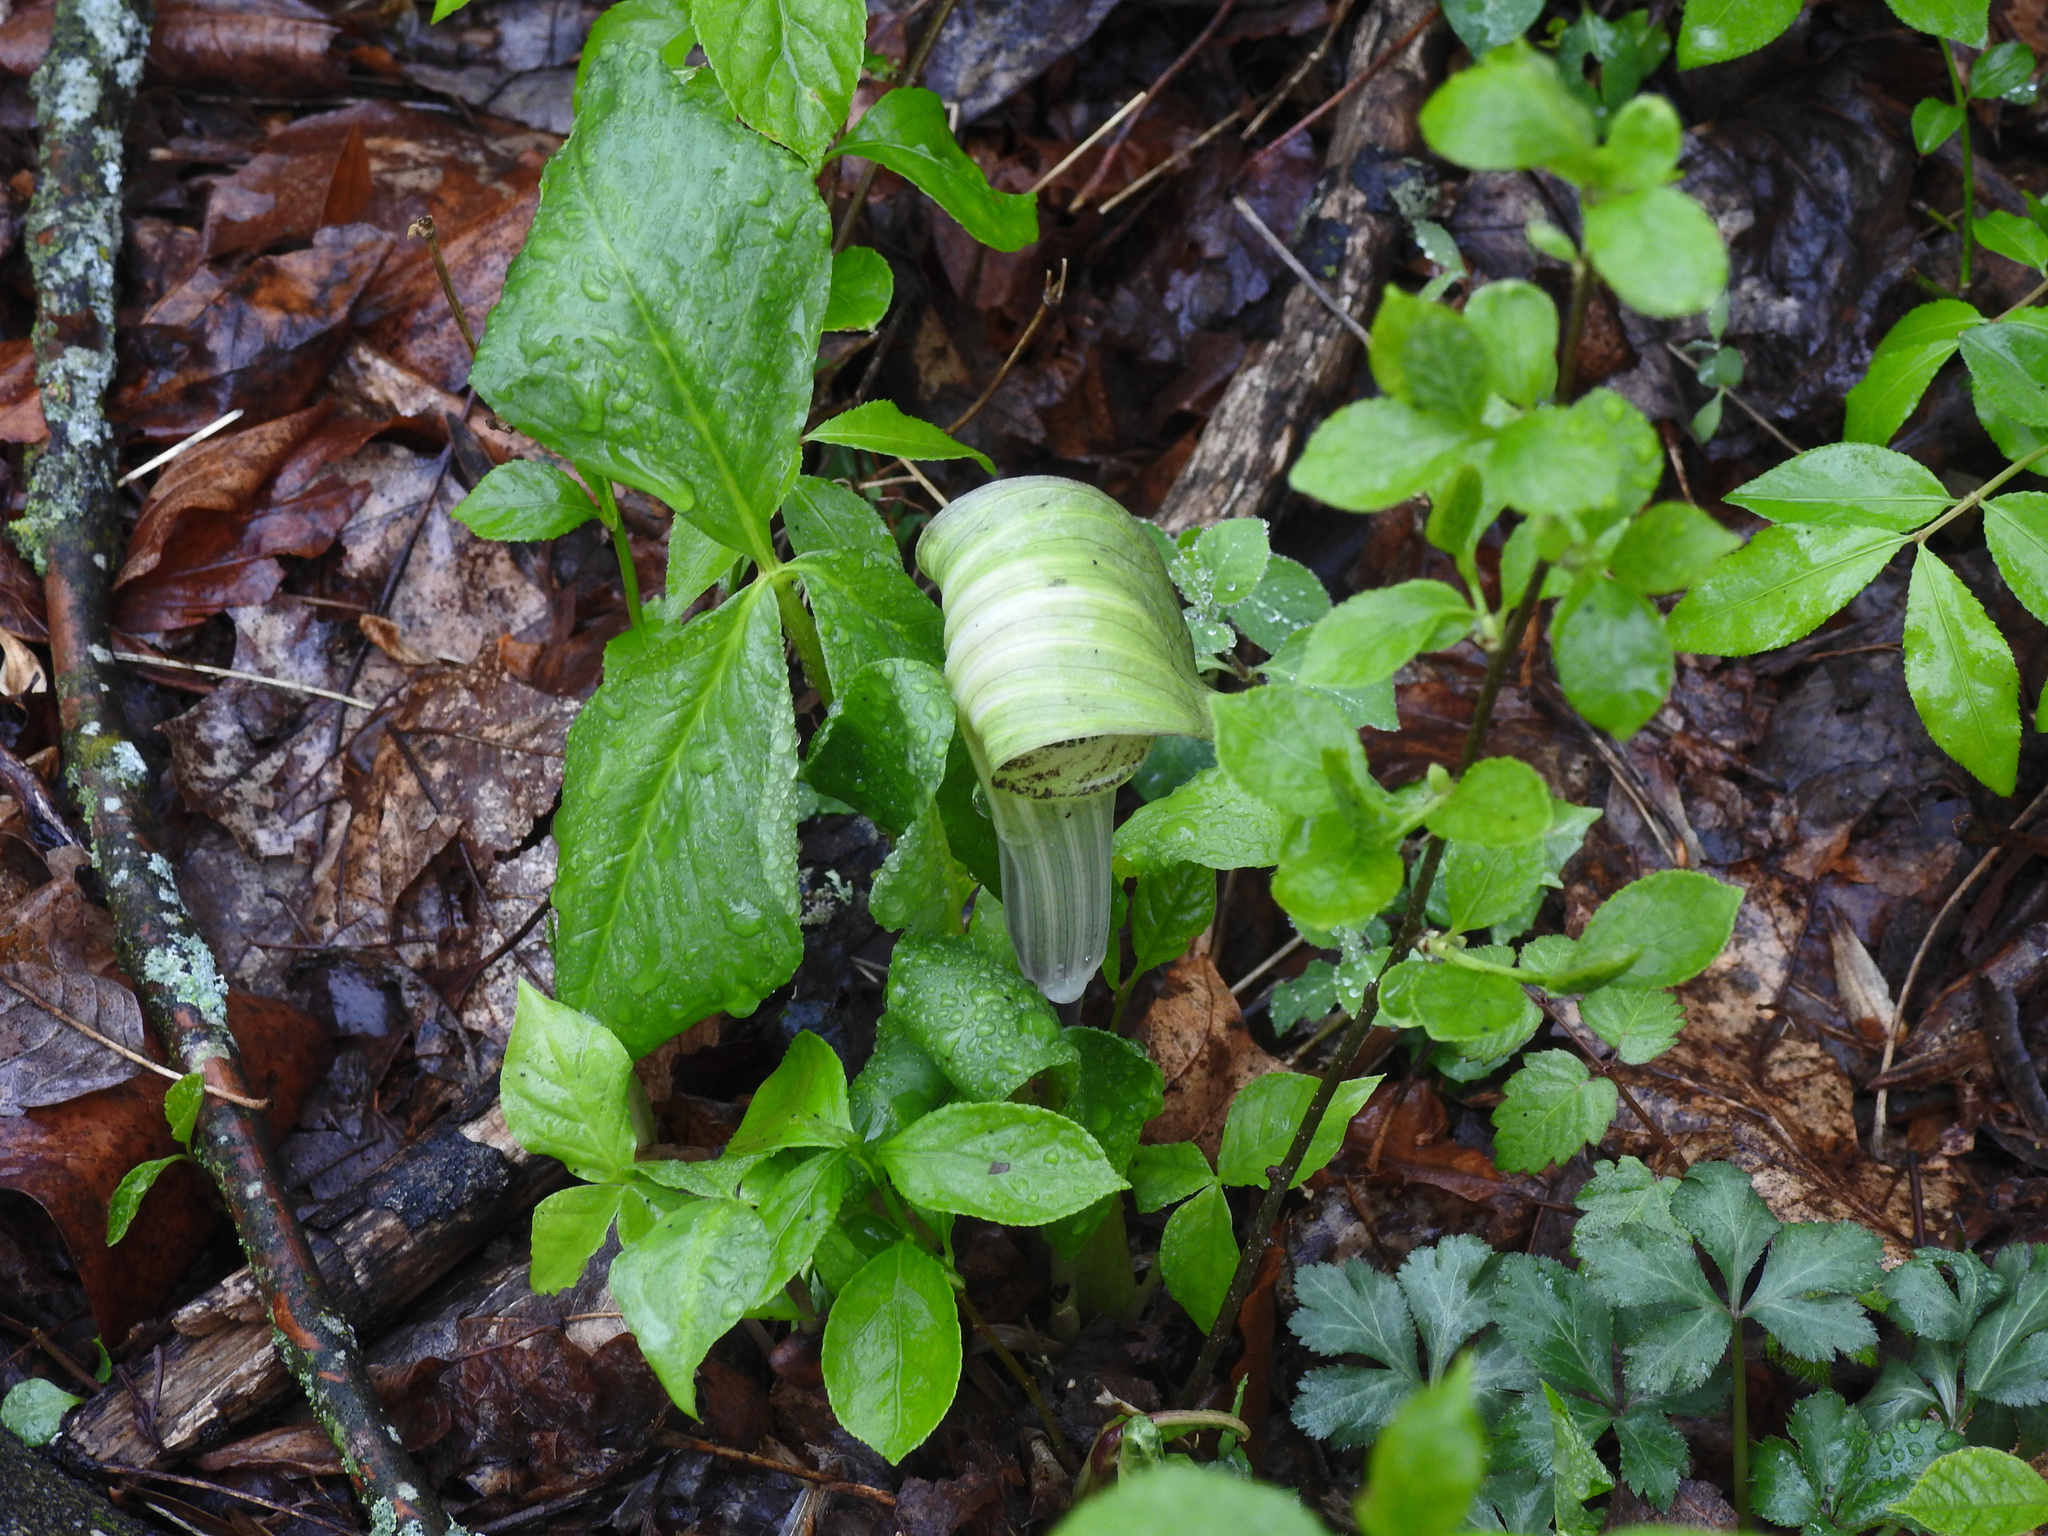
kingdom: Plantae
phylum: Tracheophyta
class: Liliopsida
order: Alismatales
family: Araceae
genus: Arisaema
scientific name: Arisaema triphyllum
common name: Jack-in-the-pulpit
